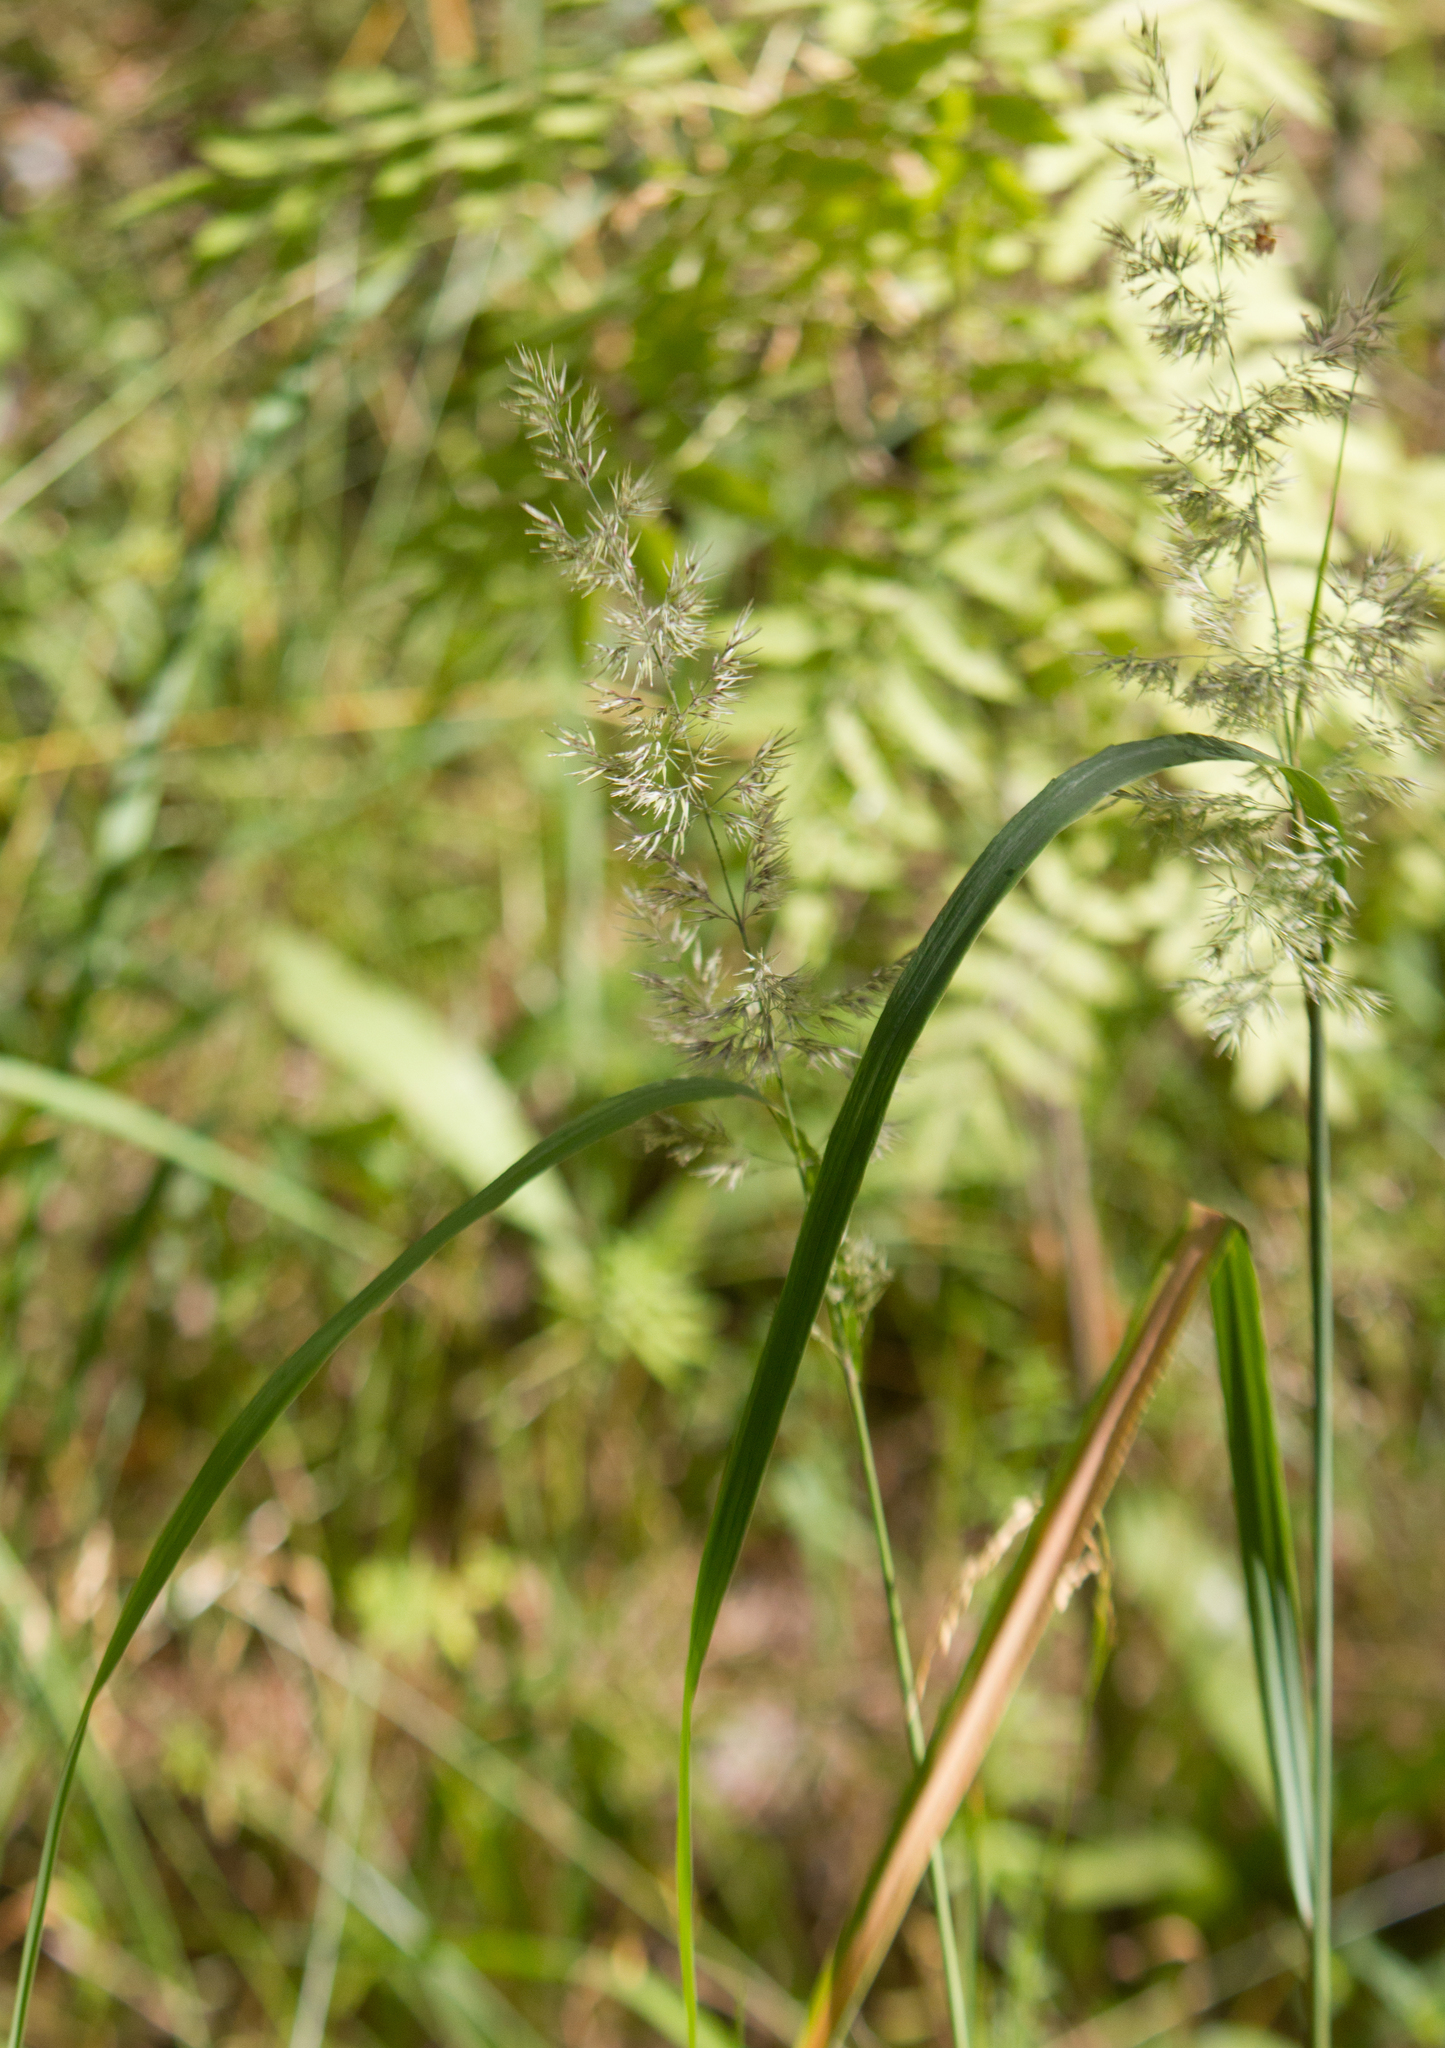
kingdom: Plantae
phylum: Tracheophyta
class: Liliopsida
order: Poales
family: Poaceae
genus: Calamagrostis
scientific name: Calamagrostis epigejos
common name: Wood small-reed
